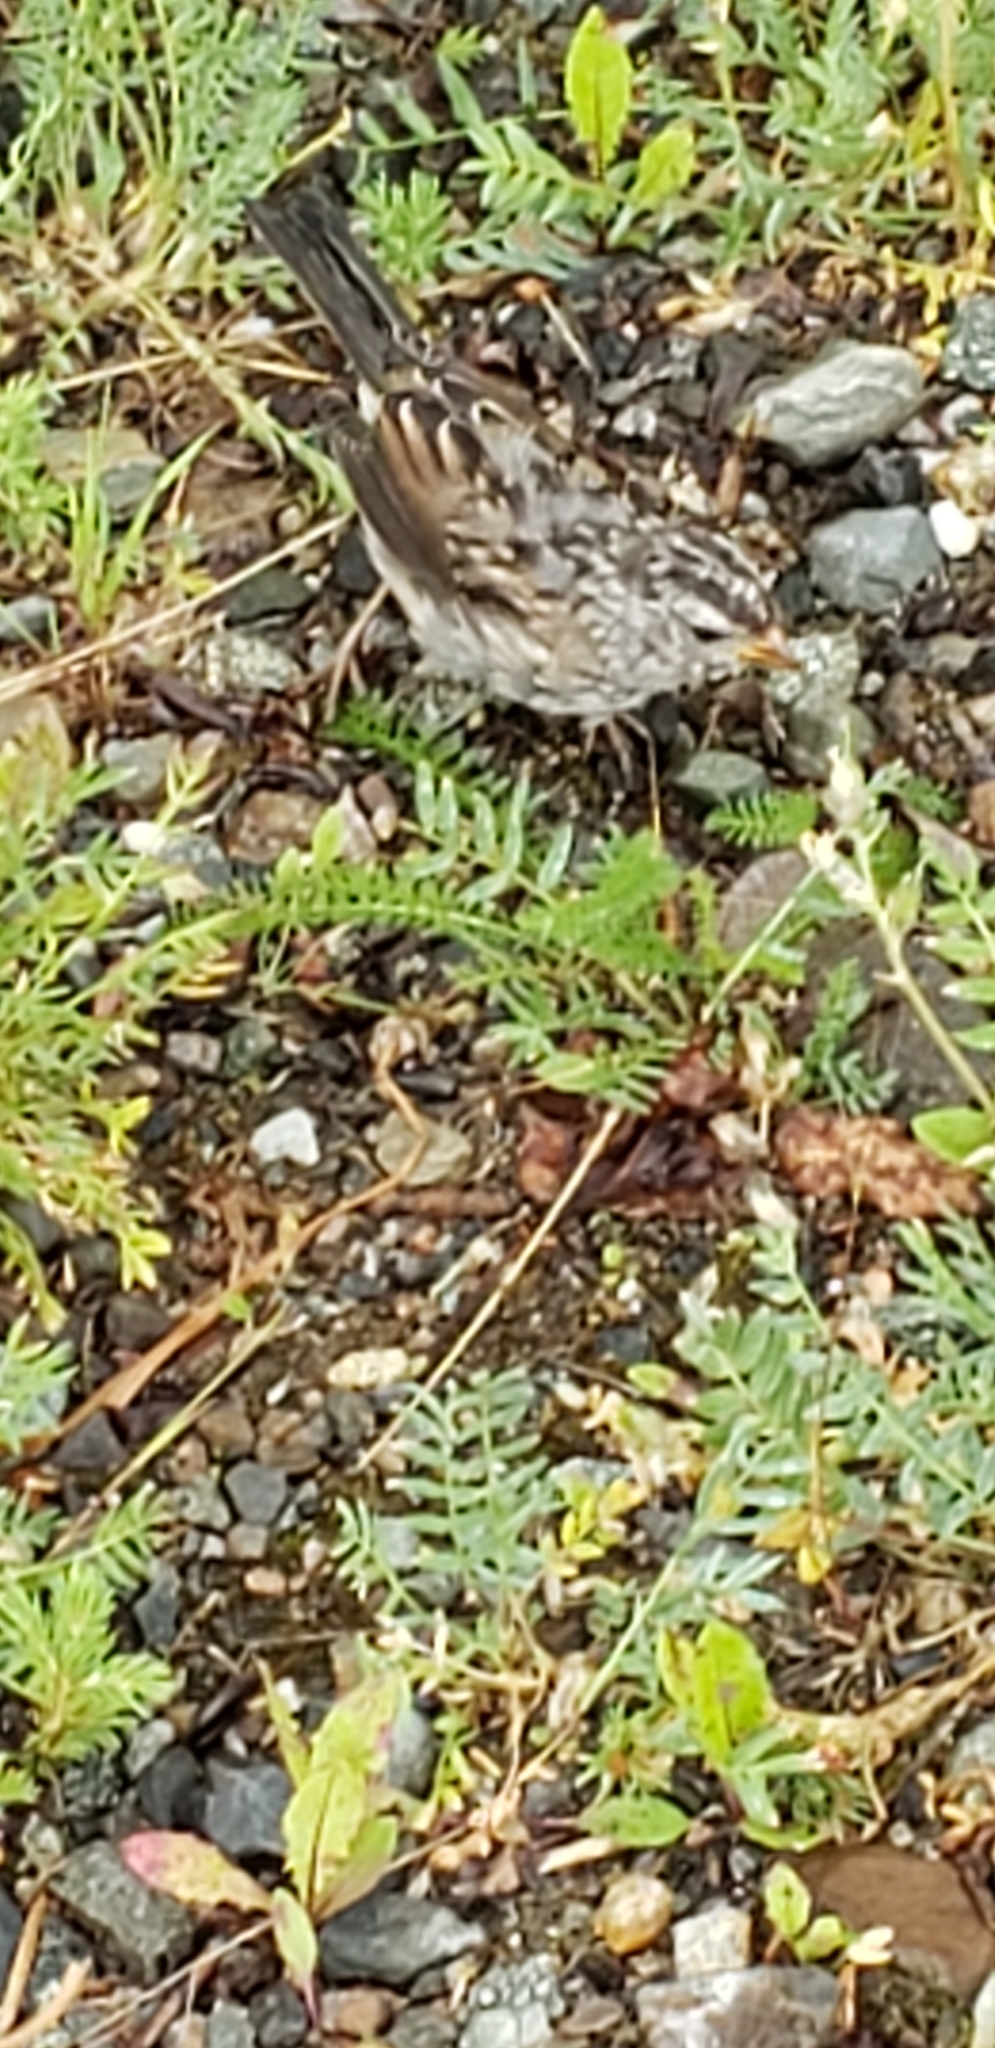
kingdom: Animalia
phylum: Chordata
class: Aves
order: Passeriformes
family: Passerellidae
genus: Zonotrichia
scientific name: Zonotrichia leucophrys
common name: White-crowned sparrow
